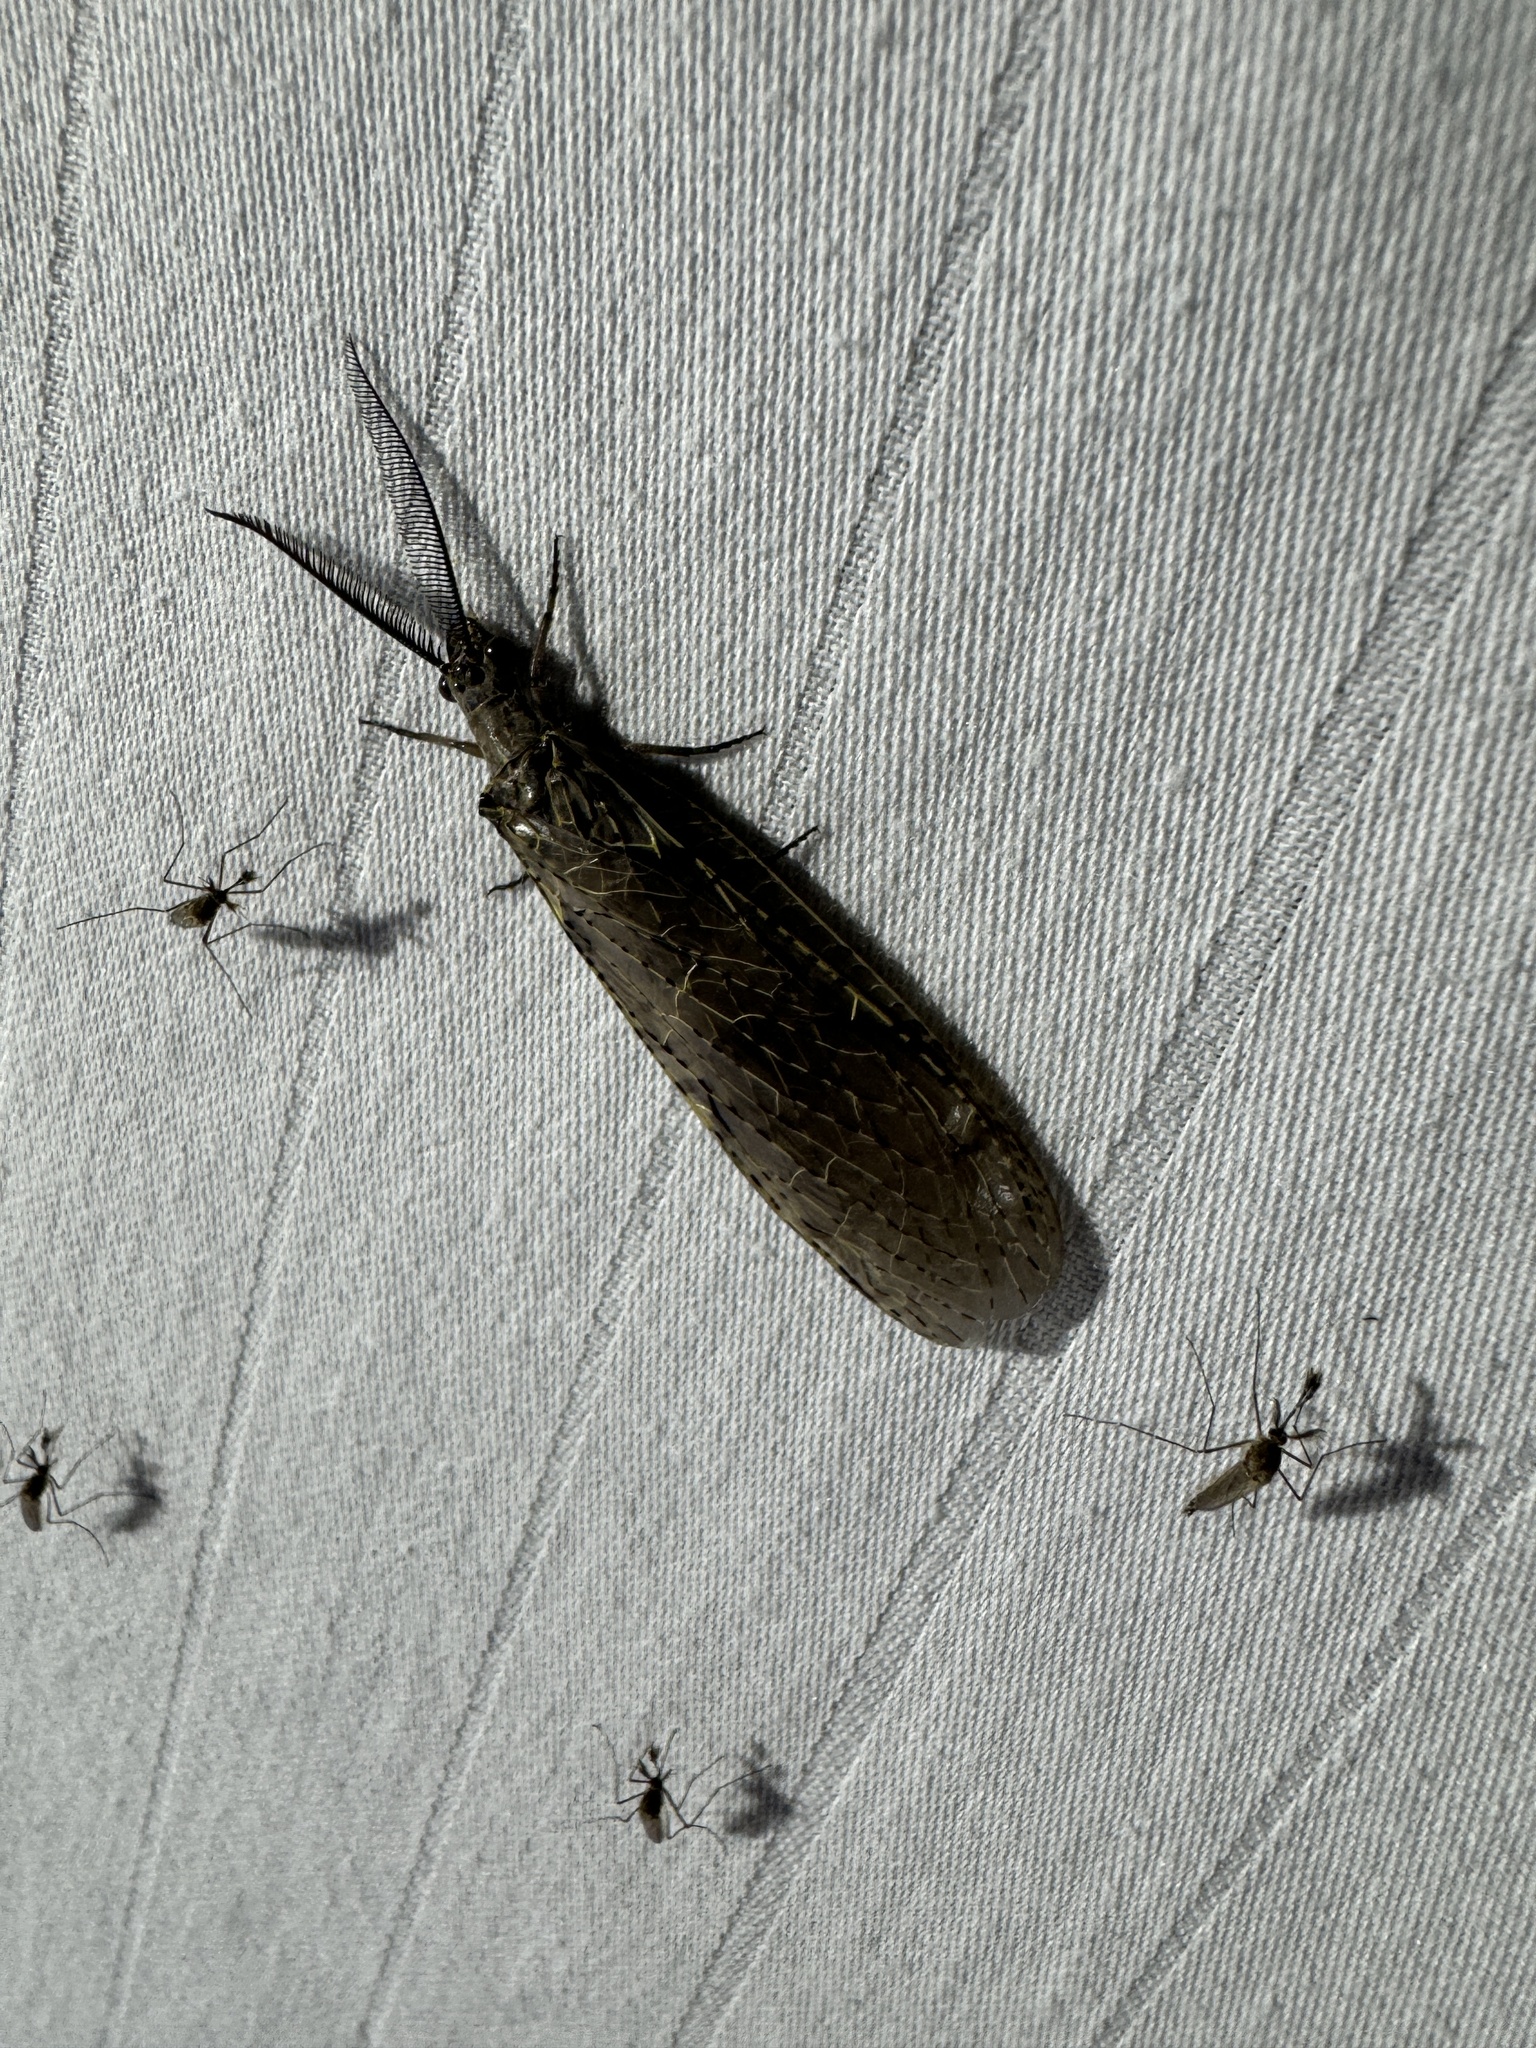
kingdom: Animalia
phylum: Arthropoda
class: Insecta
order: Megaloptera
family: Corydalidae
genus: Chauliodes
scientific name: Chauliodes rastricornis
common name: Spring fishfly
